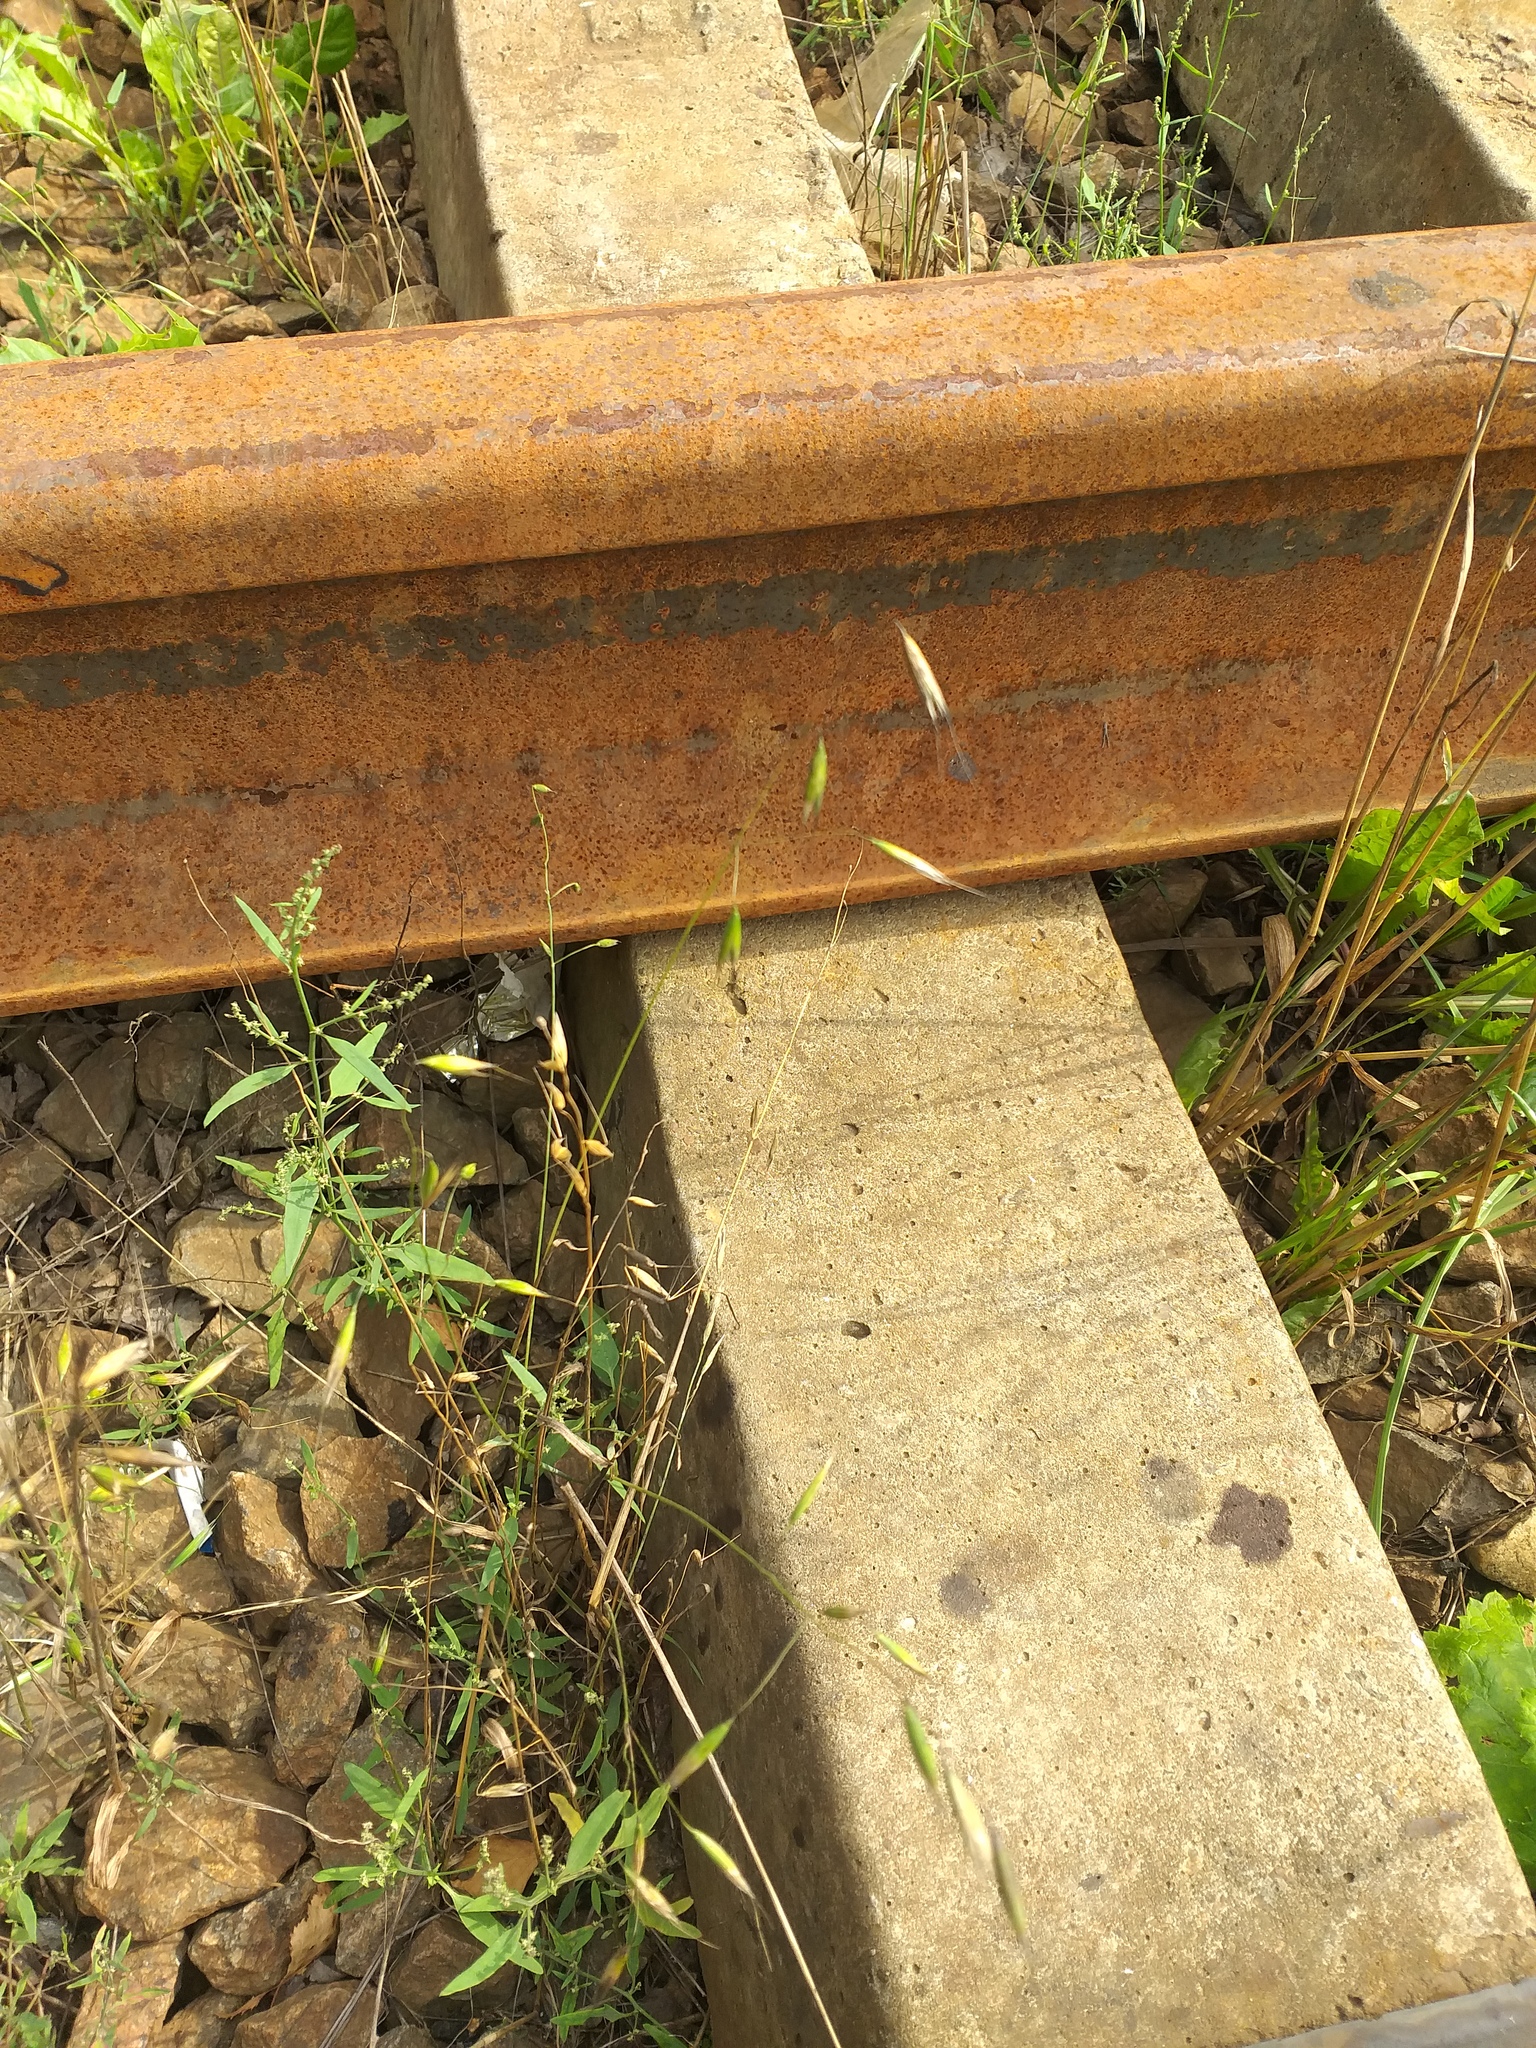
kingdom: Plantae
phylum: Tracheophyta
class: Liliopsida
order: Poales
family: Poaceae
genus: Avena
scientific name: Avena fatua
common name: Wild oat
